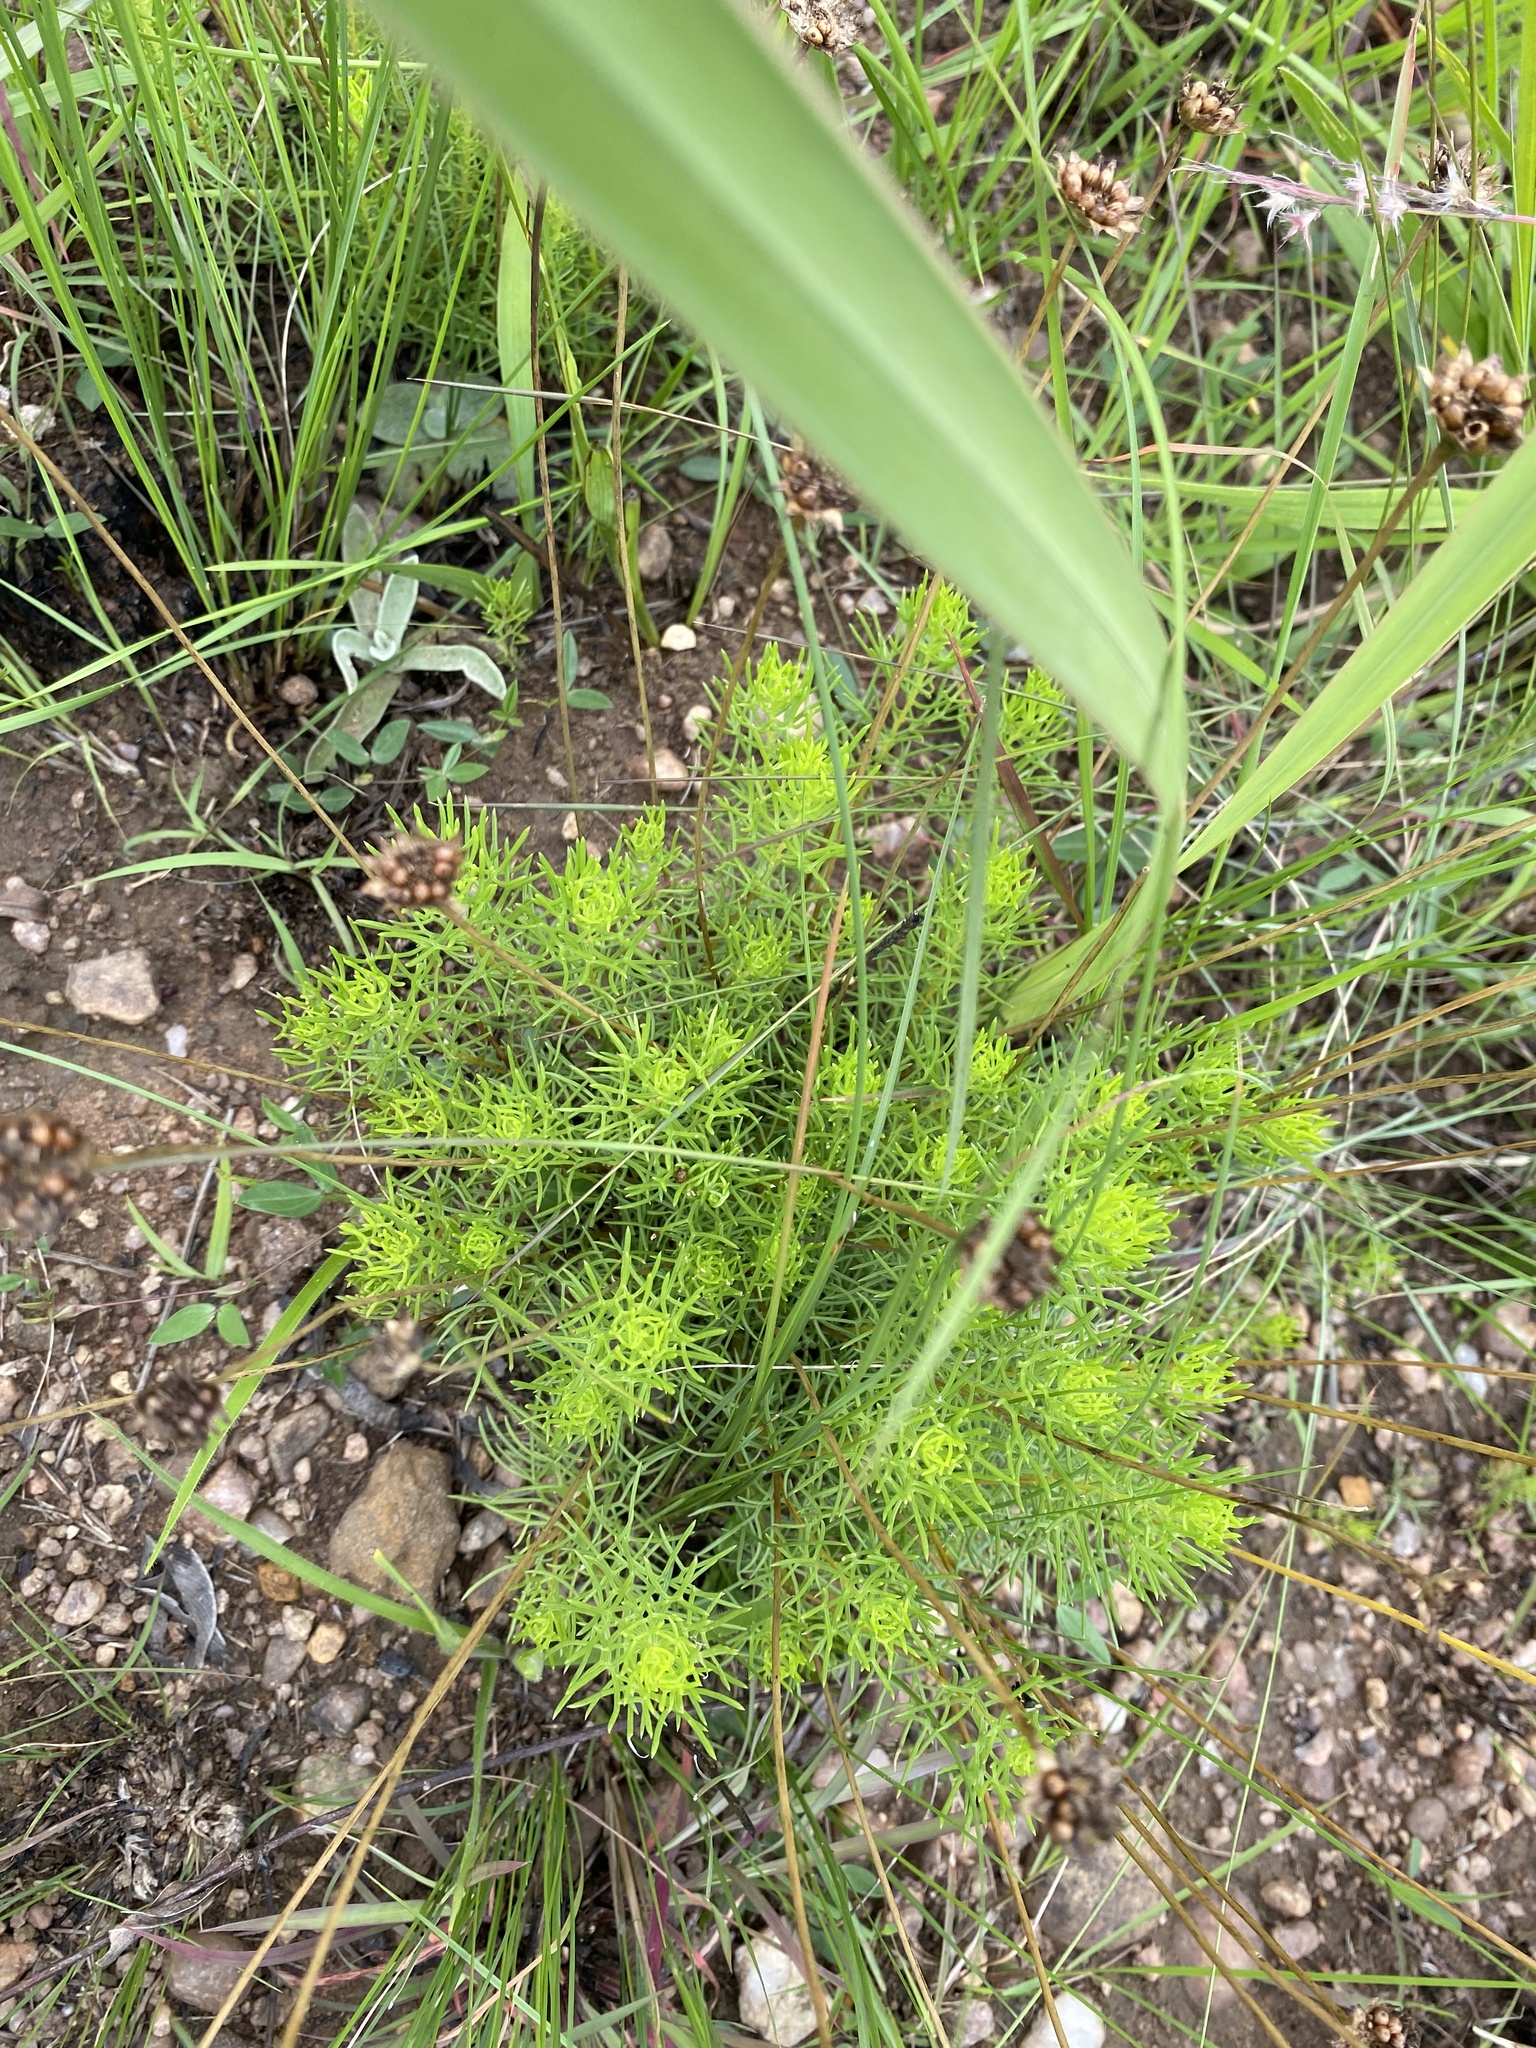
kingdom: Plantae
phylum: Tracheophyta
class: Magnoliopsida
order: Asterales
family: Asteraceae
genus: Ursinia
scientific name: Ursinia saxatilis
